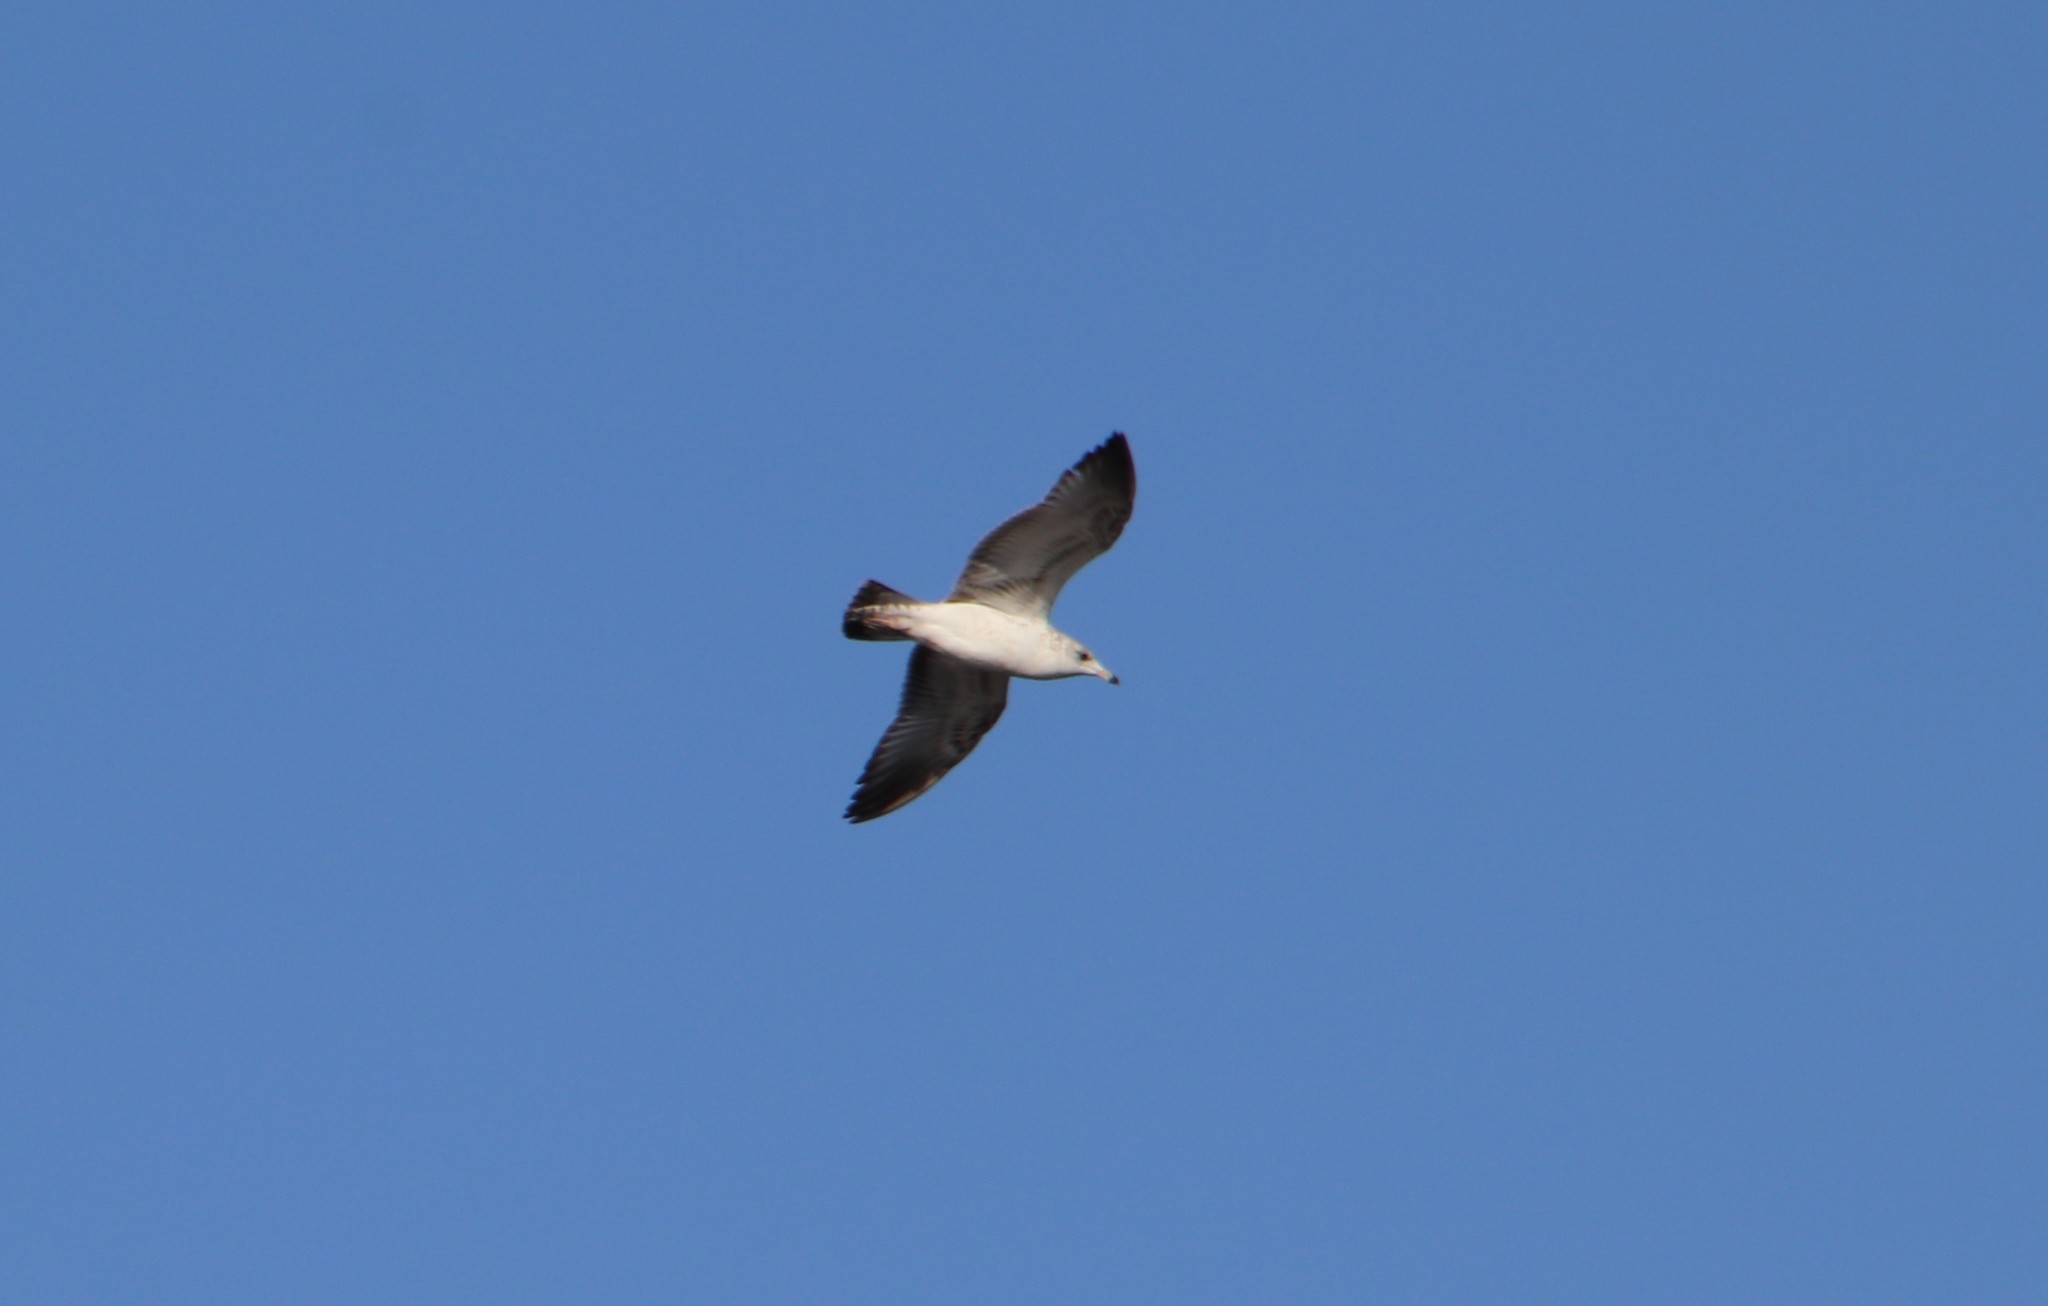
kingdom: Animalia
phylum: Chordata
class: Aves
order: Charadriiformes
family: Laridae
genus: Larus
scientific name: Larus delawarensis
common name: Ring-billed gull
